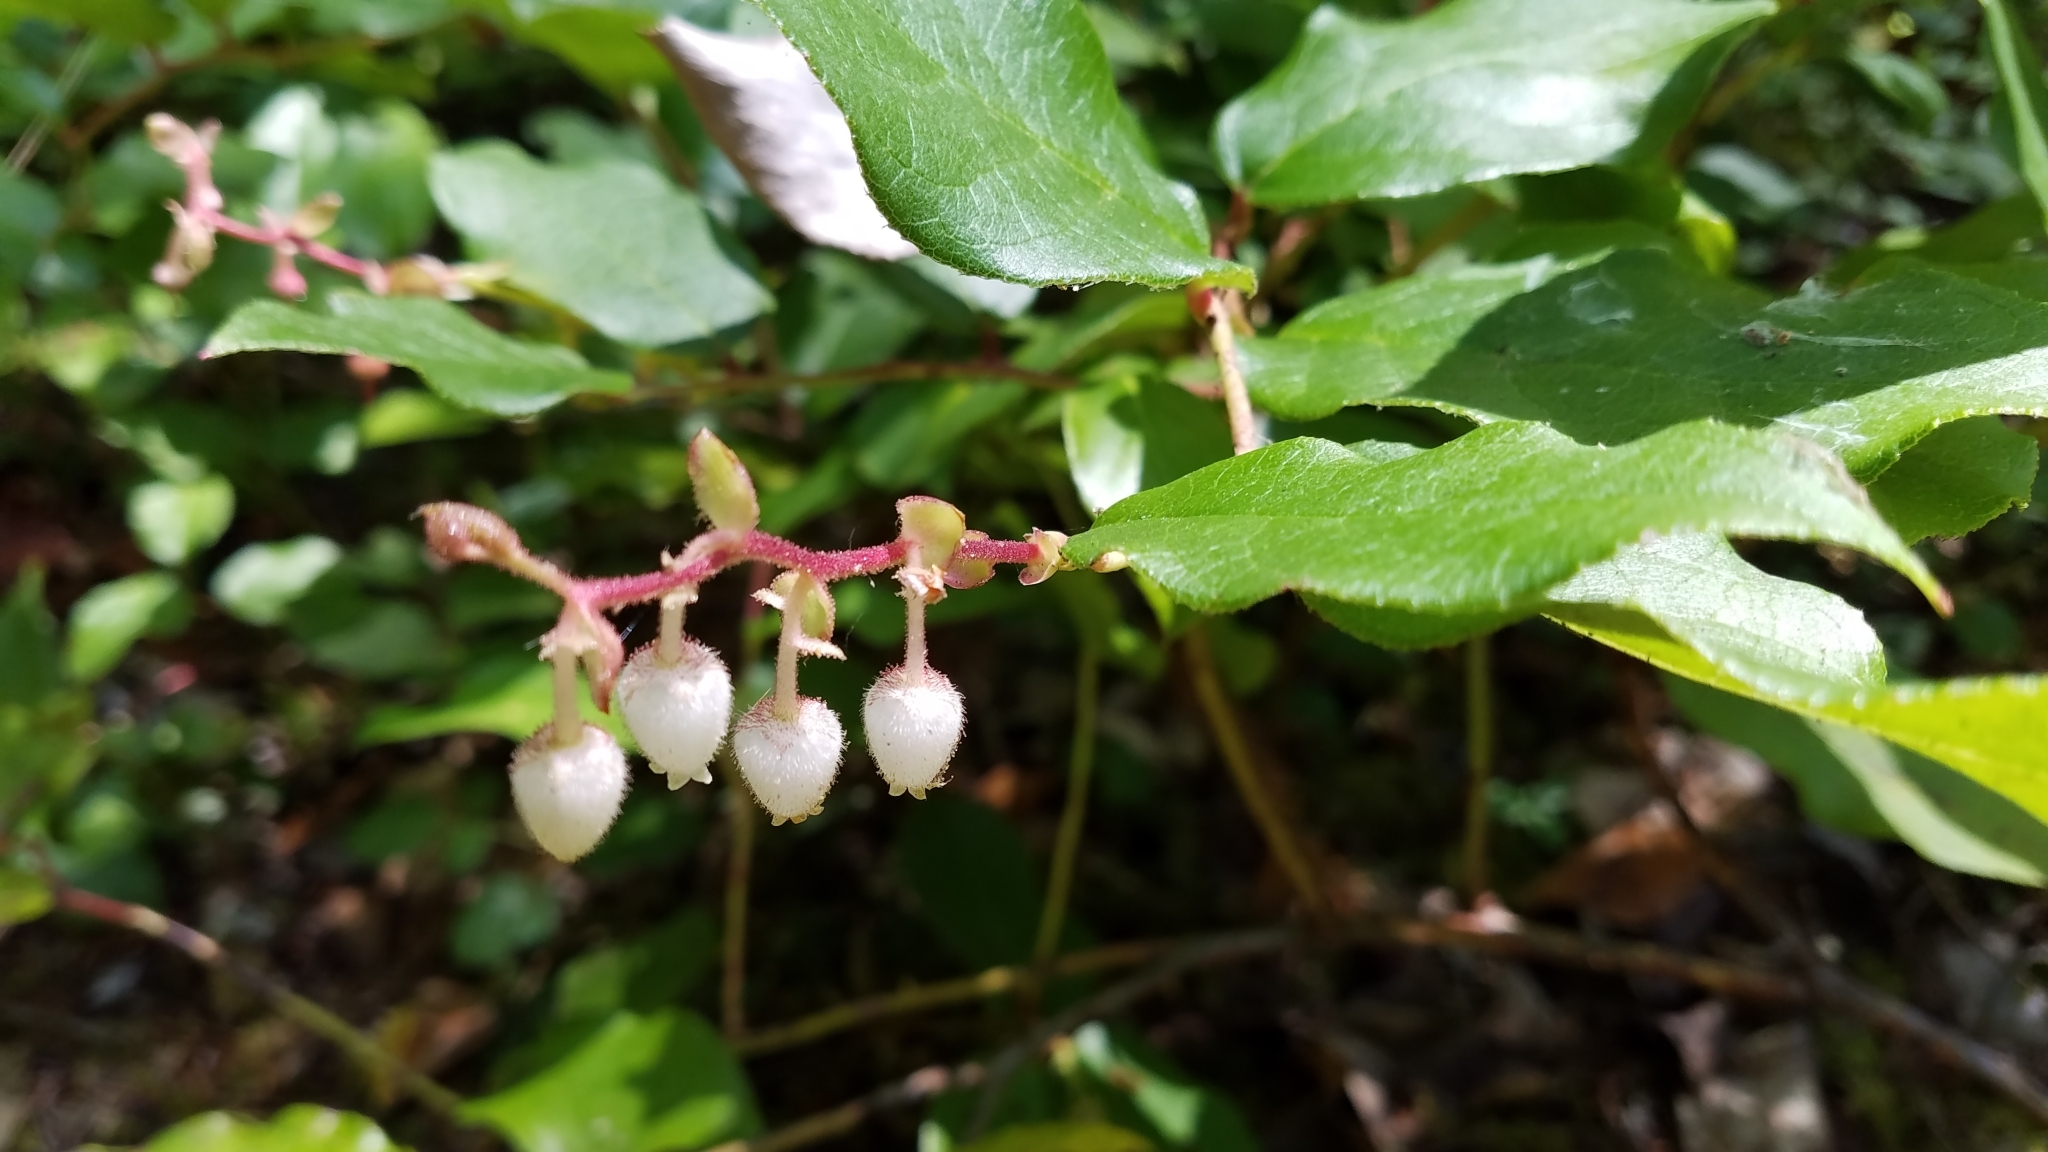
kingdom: Plantae
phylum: Tracheophyta
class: Magnoliopsida
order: Ericales
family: Ericaceae
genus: Gaultheria
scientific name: Gaultheria shallon
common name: Shallon
